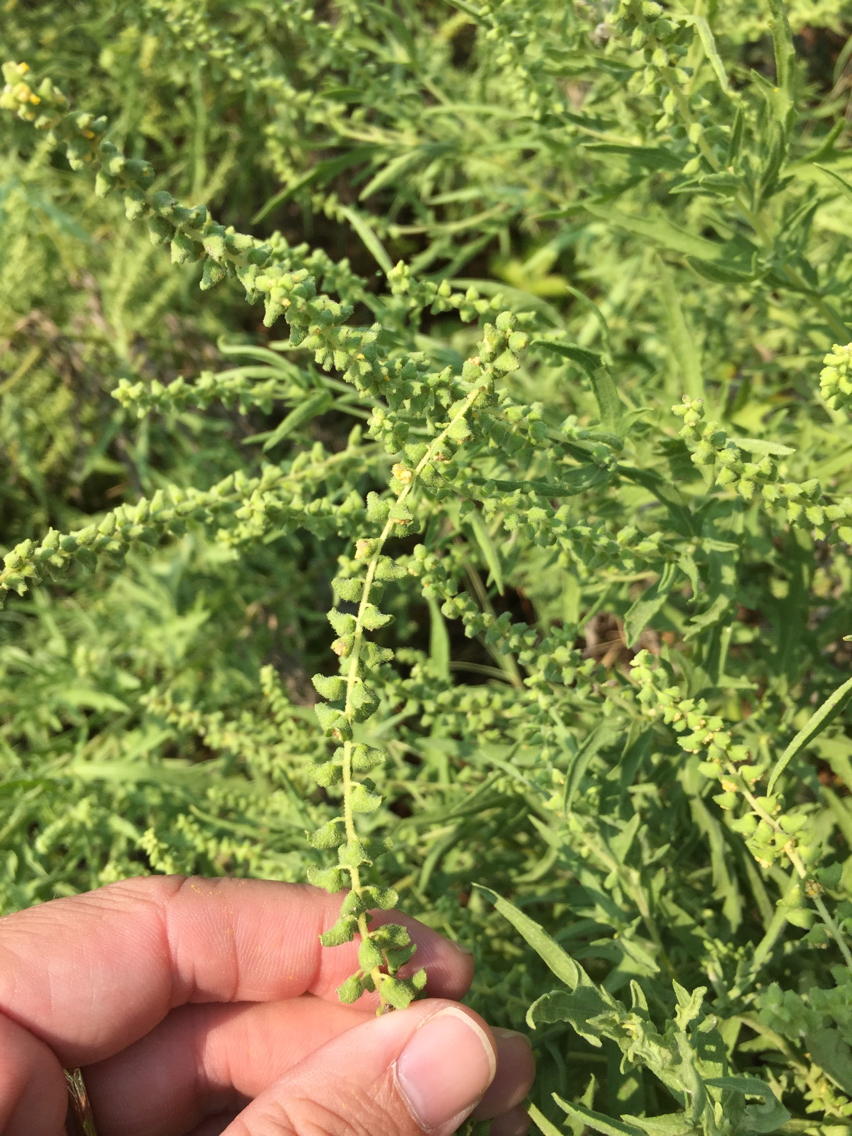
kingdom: Plantae
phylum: Tracheophyta
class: Magnoliopsida
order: Asterales
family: Asteraceae
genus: Ambrosia
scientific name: Ambrosia psilostachya
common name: Perennial ragweed
